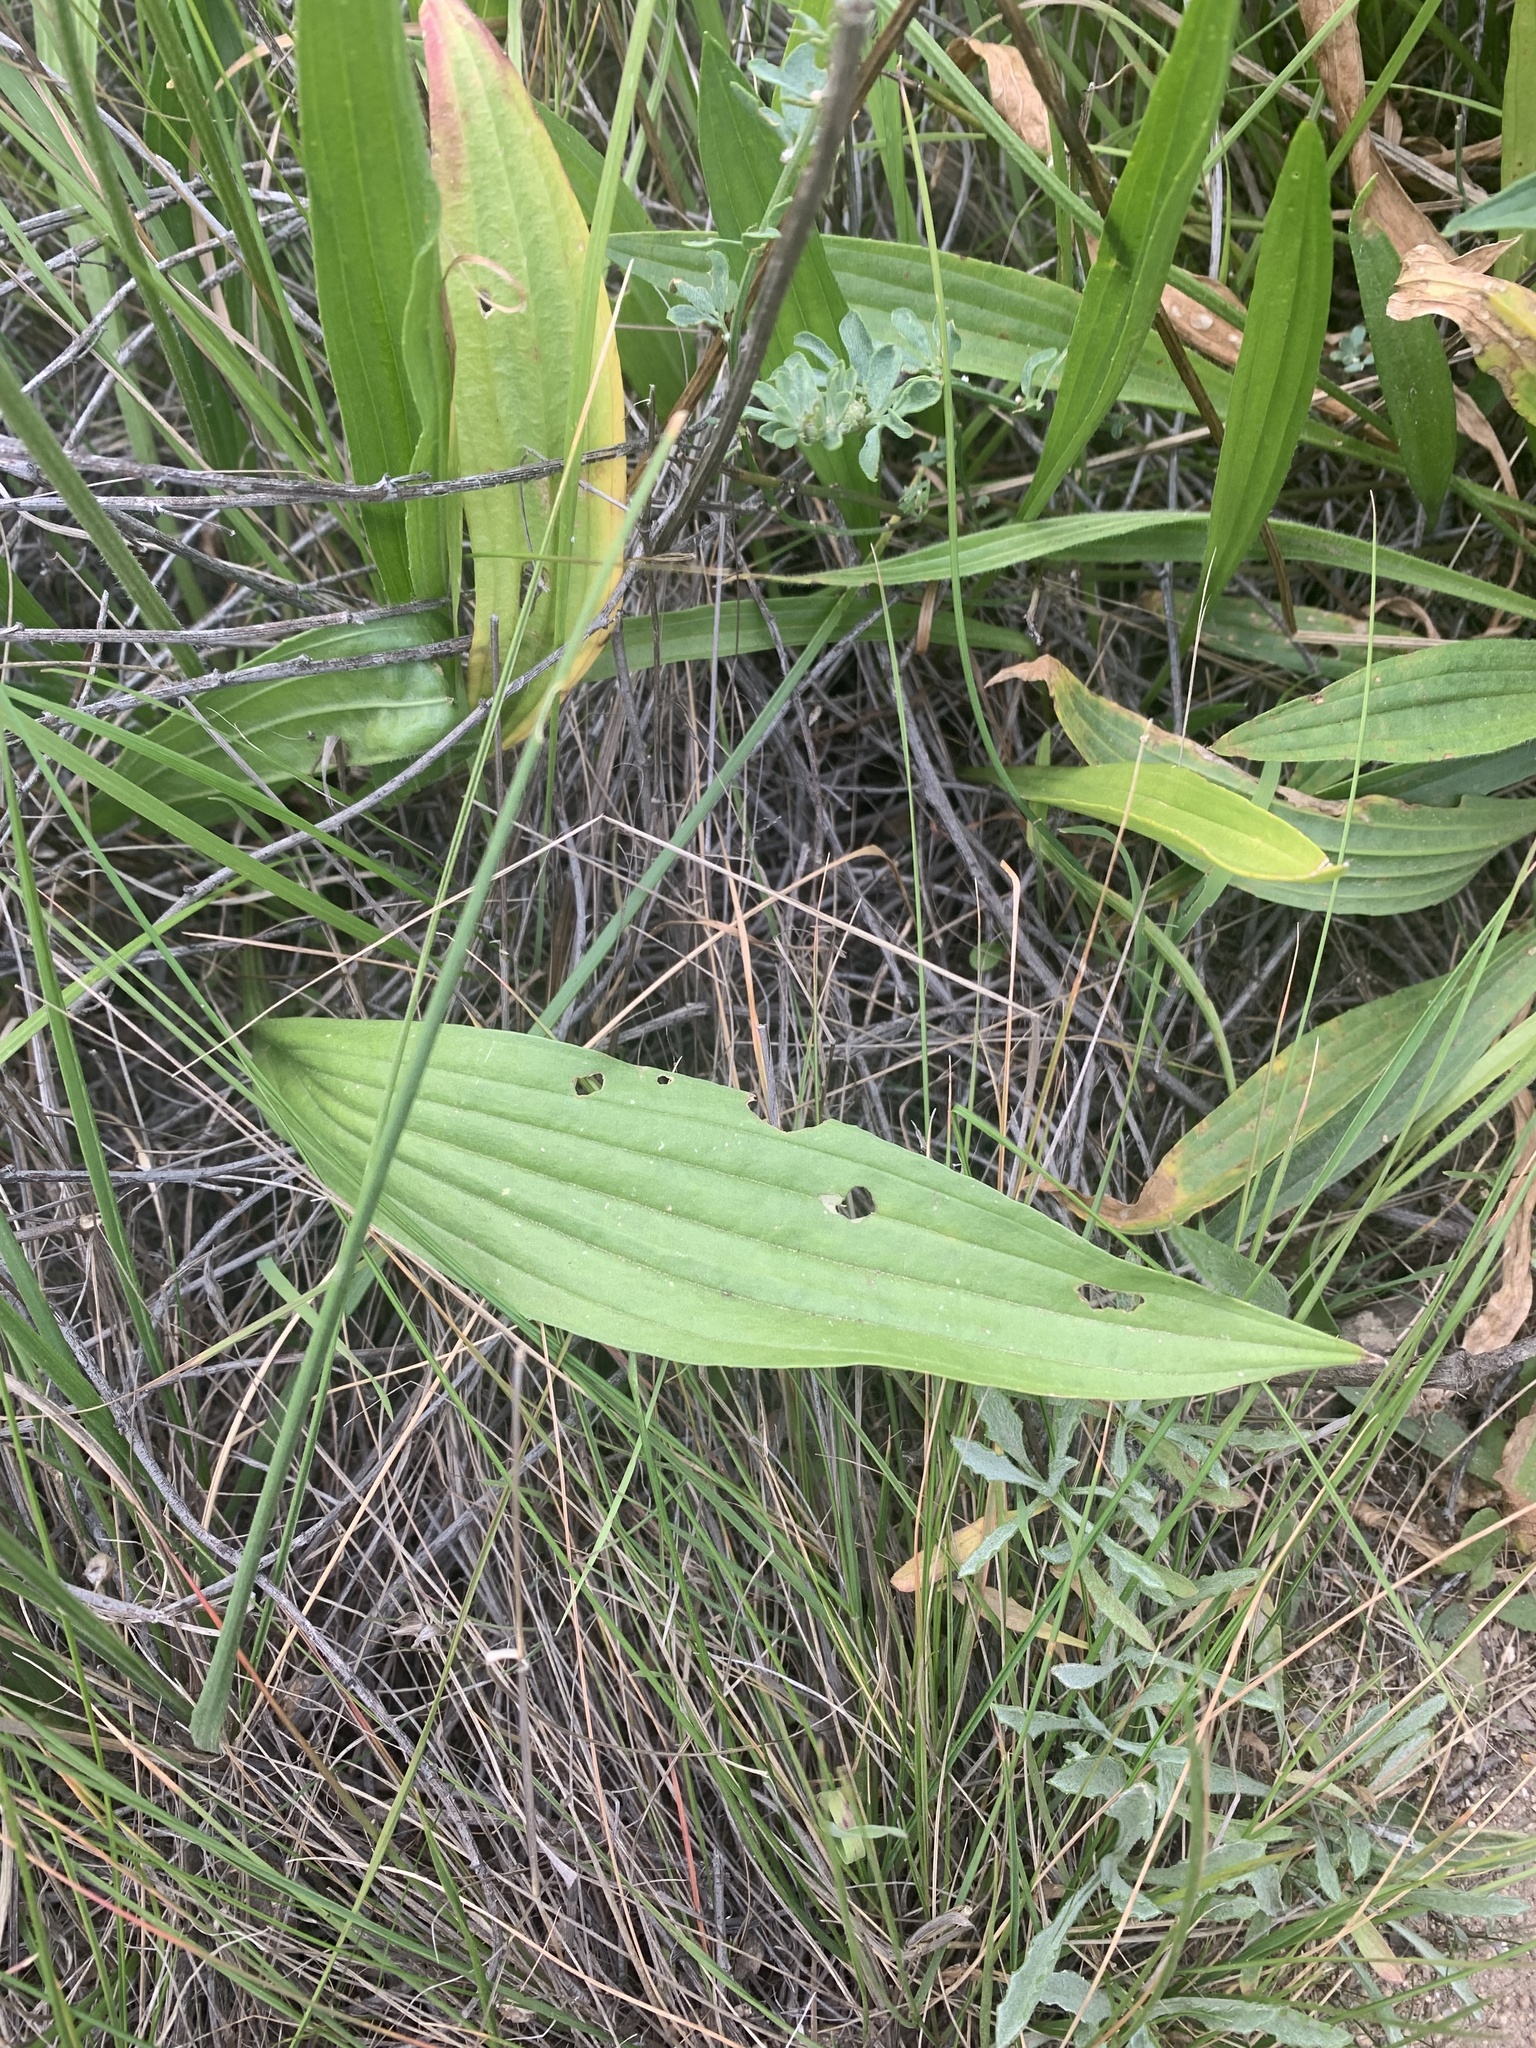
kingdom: Plantae
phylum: Tracheophyta
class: Magnoliopsida
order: Lamiales
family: Plantaginaceae
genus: Plantago
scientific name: Plantago lanceolata
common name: Ribwort plantain
